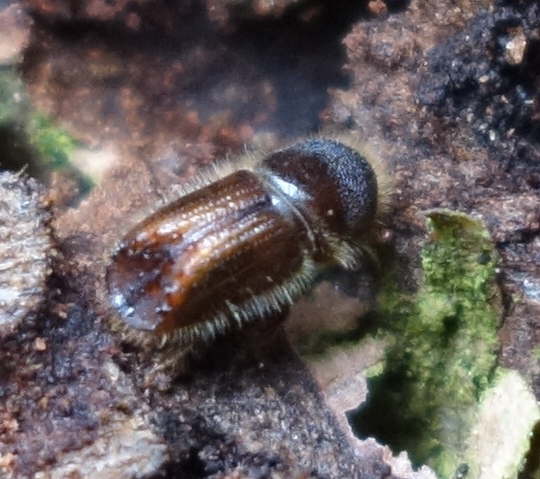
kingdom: Animalia
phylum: Arthropoda
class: Insecta
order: Coleoptera
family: Curculionidae
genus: Ips
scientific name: Ips typographus
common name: Eight-toothed spruce bark beetle
